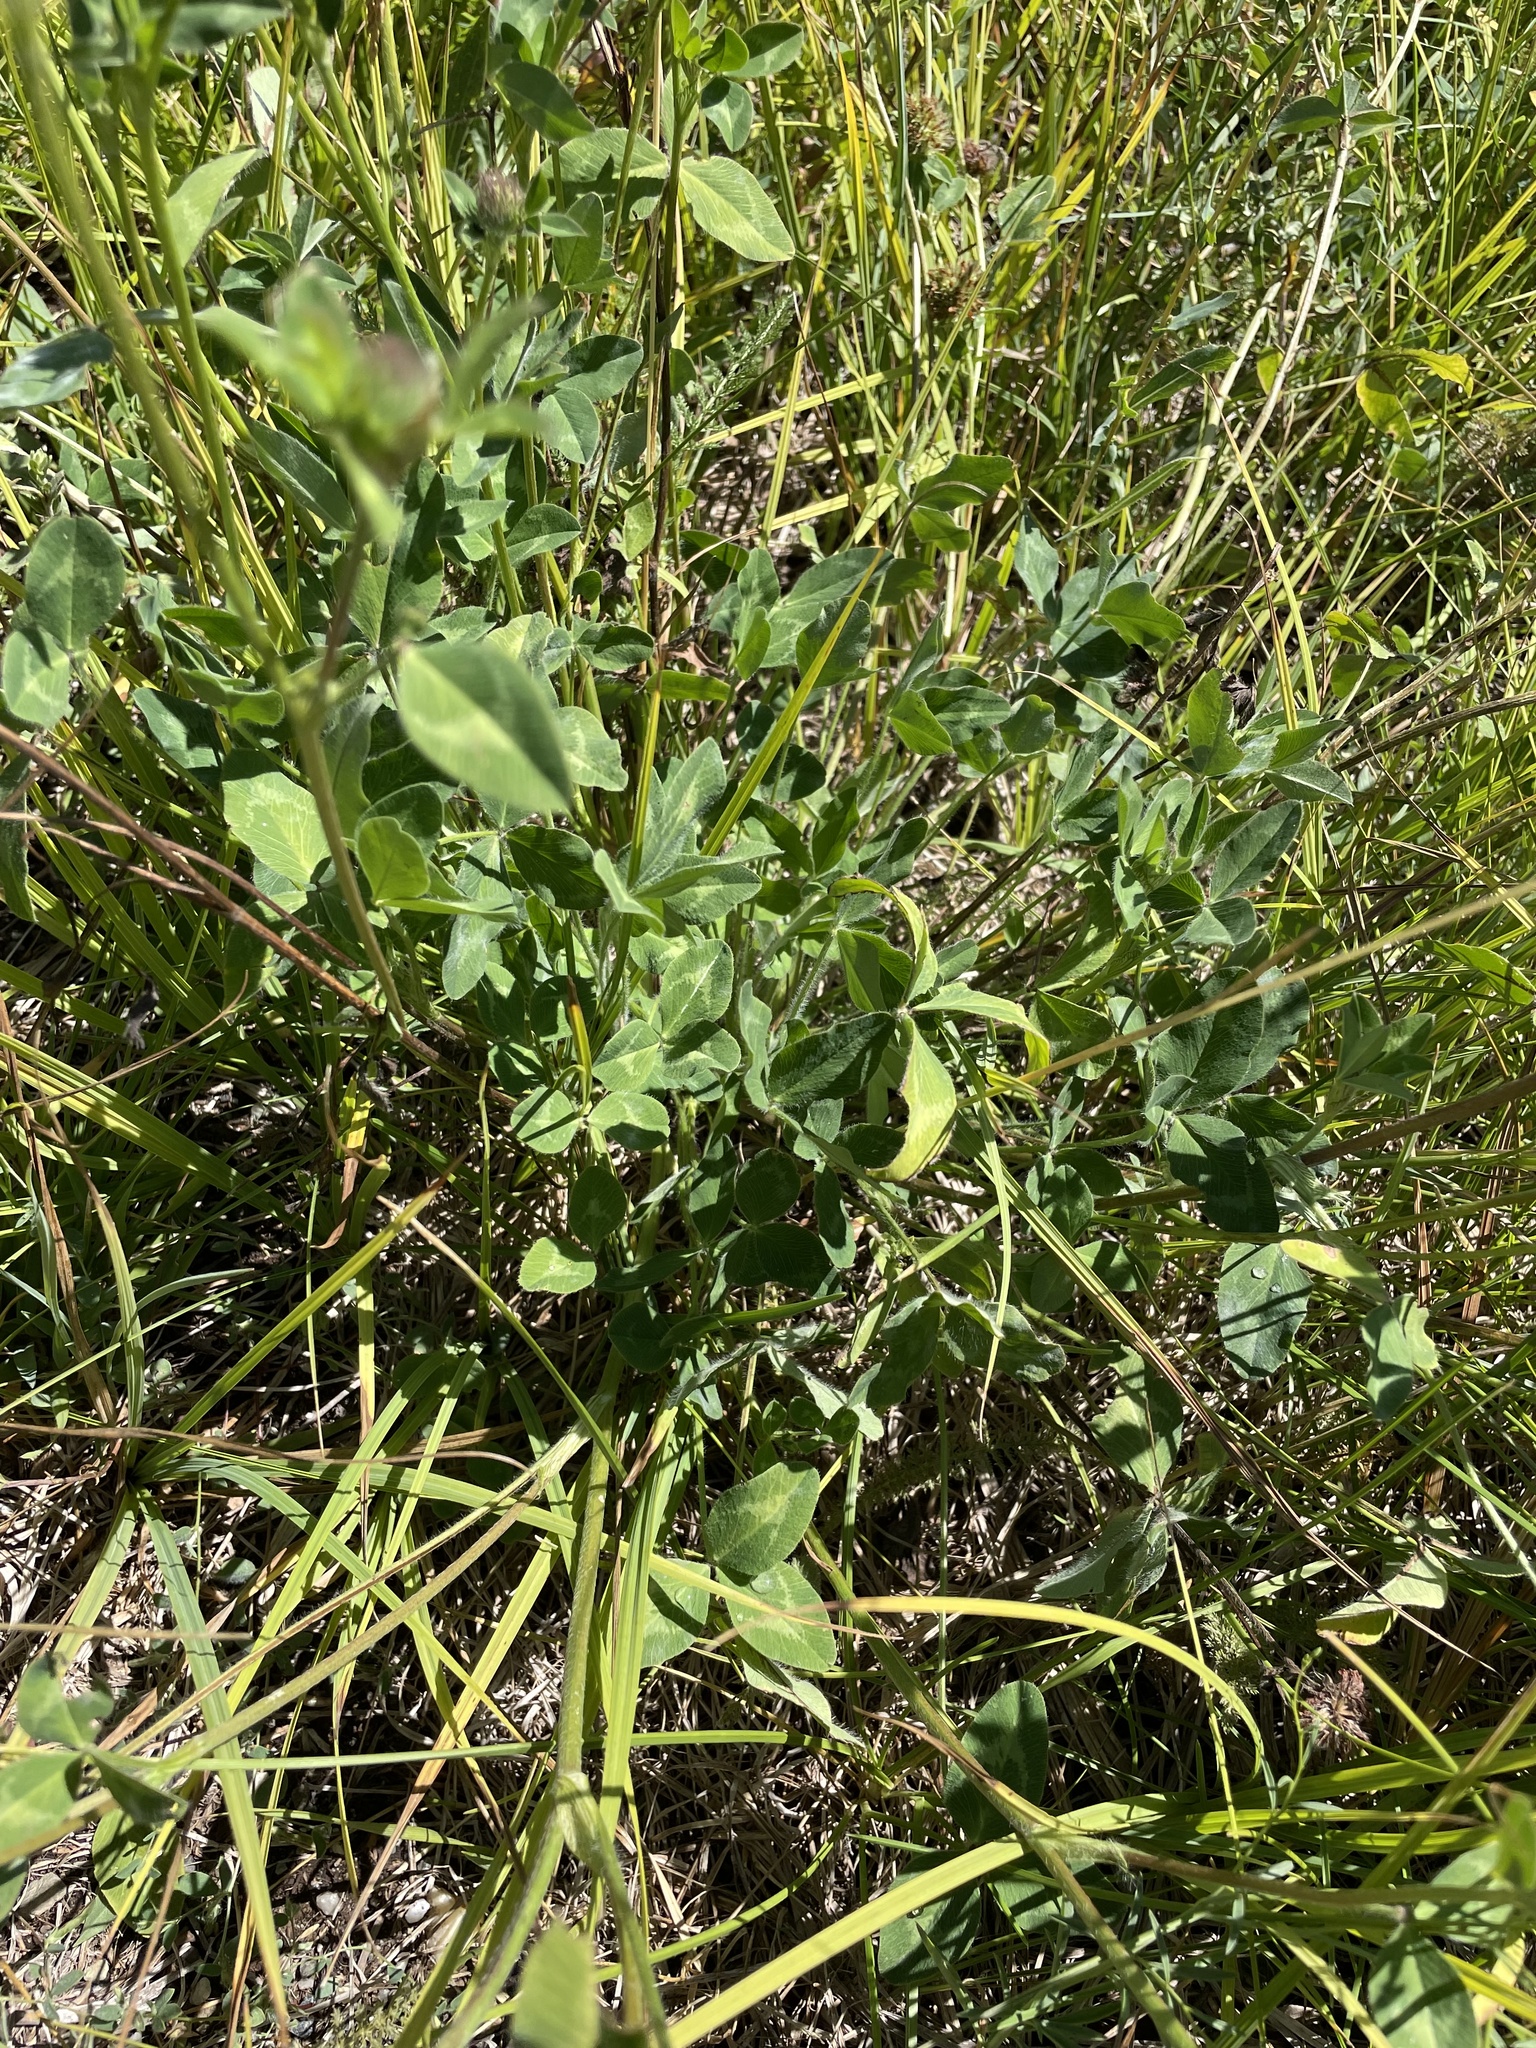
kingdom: Plantae
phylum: Tracheophyta
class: Magnoliopsida
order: Fabales
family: Fabaceae
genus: Trifolium
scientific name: Trifolium pratense
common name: Red clover
